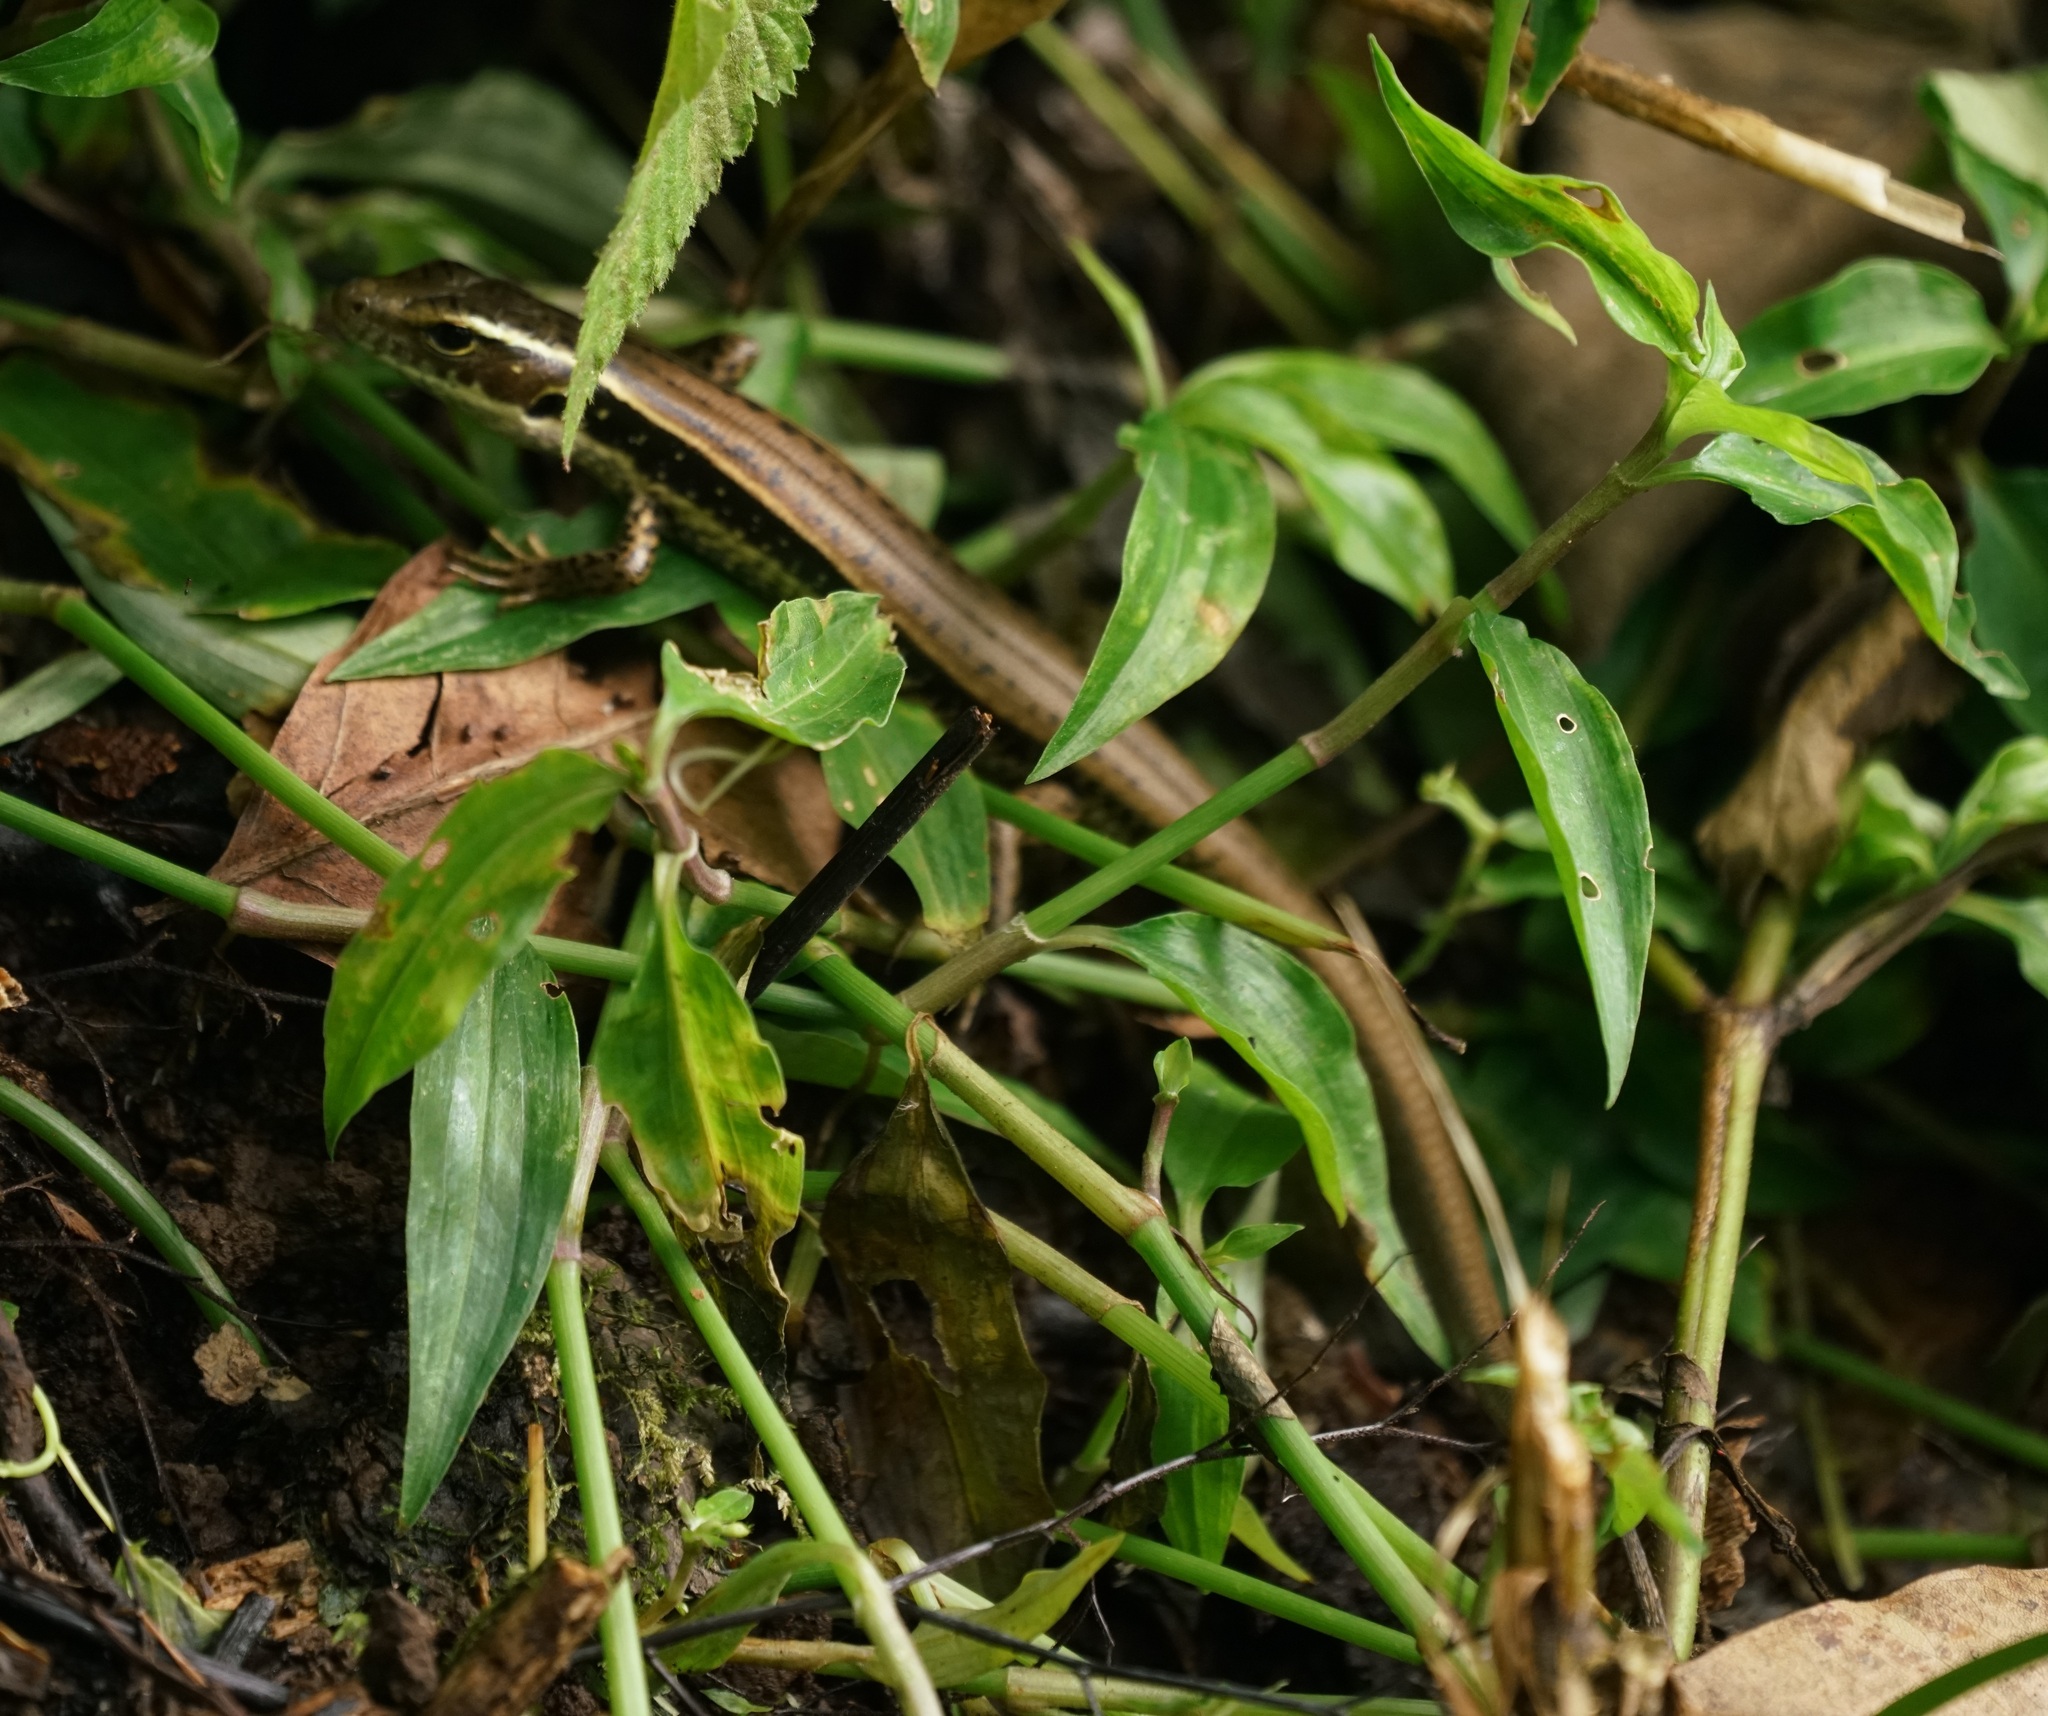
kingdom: Animalia
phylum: Chordata
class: Squamata
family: Scincidae
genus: Eulamprus
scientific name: Eulamprus quoyii
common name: Eastern water skink
